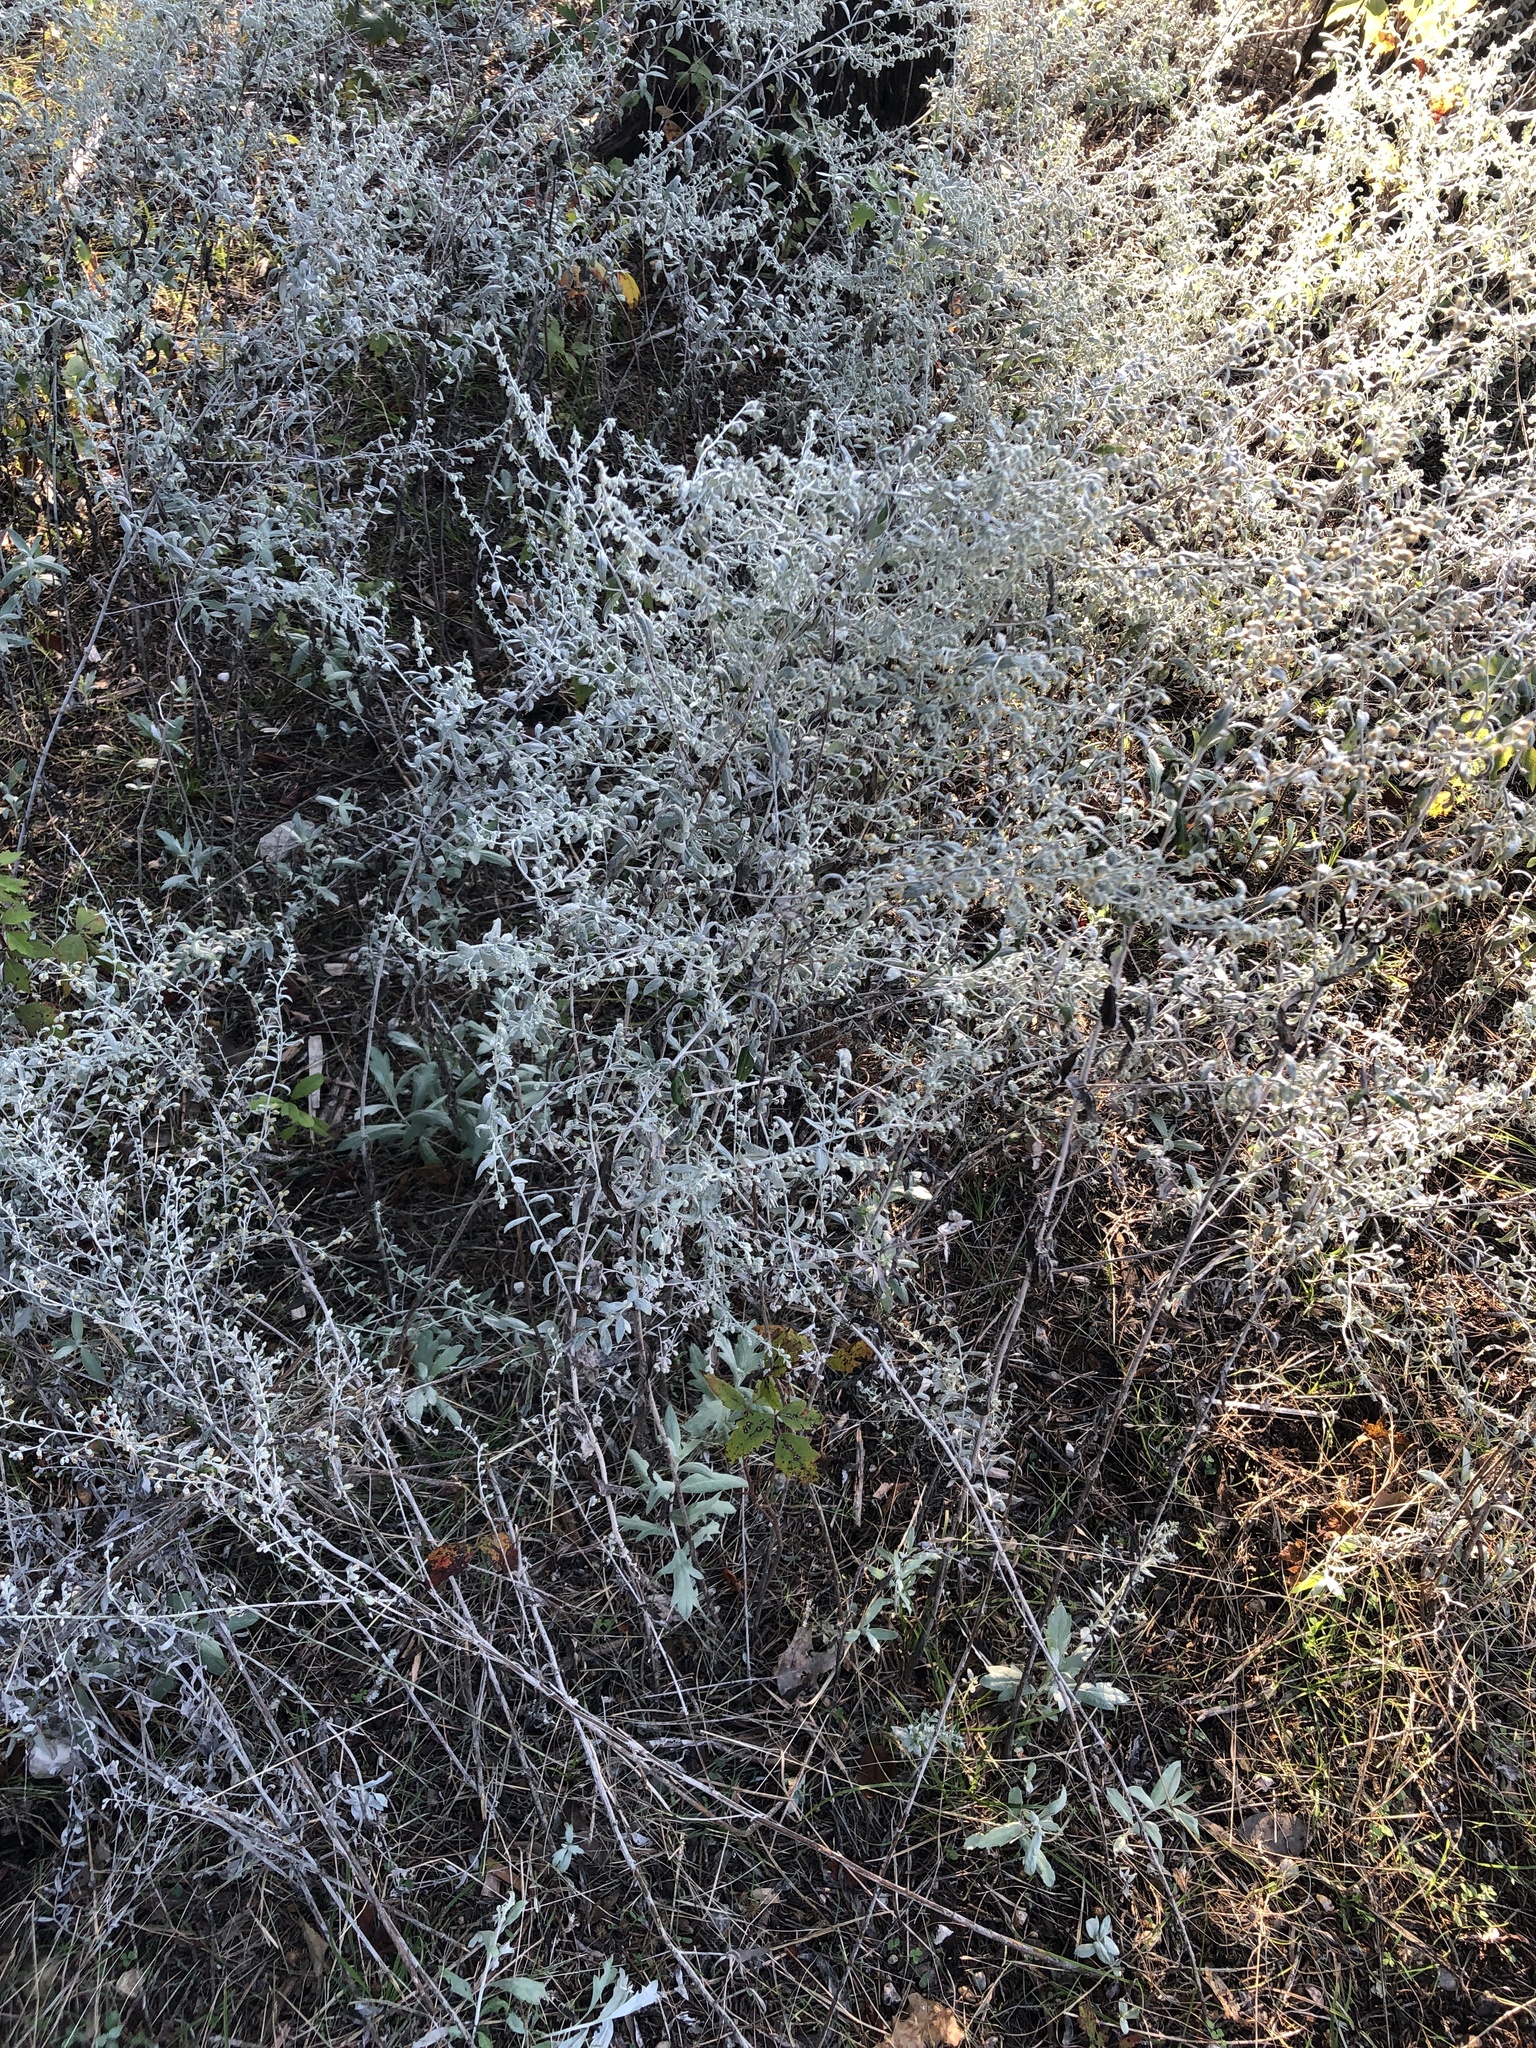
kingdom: Plantae
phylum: Tracheophyta
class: Magnoliopsida
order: Asterales
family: Asteraceae
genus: Artemisia
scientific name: Artemisia ludoviciana
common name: Western mugwort
